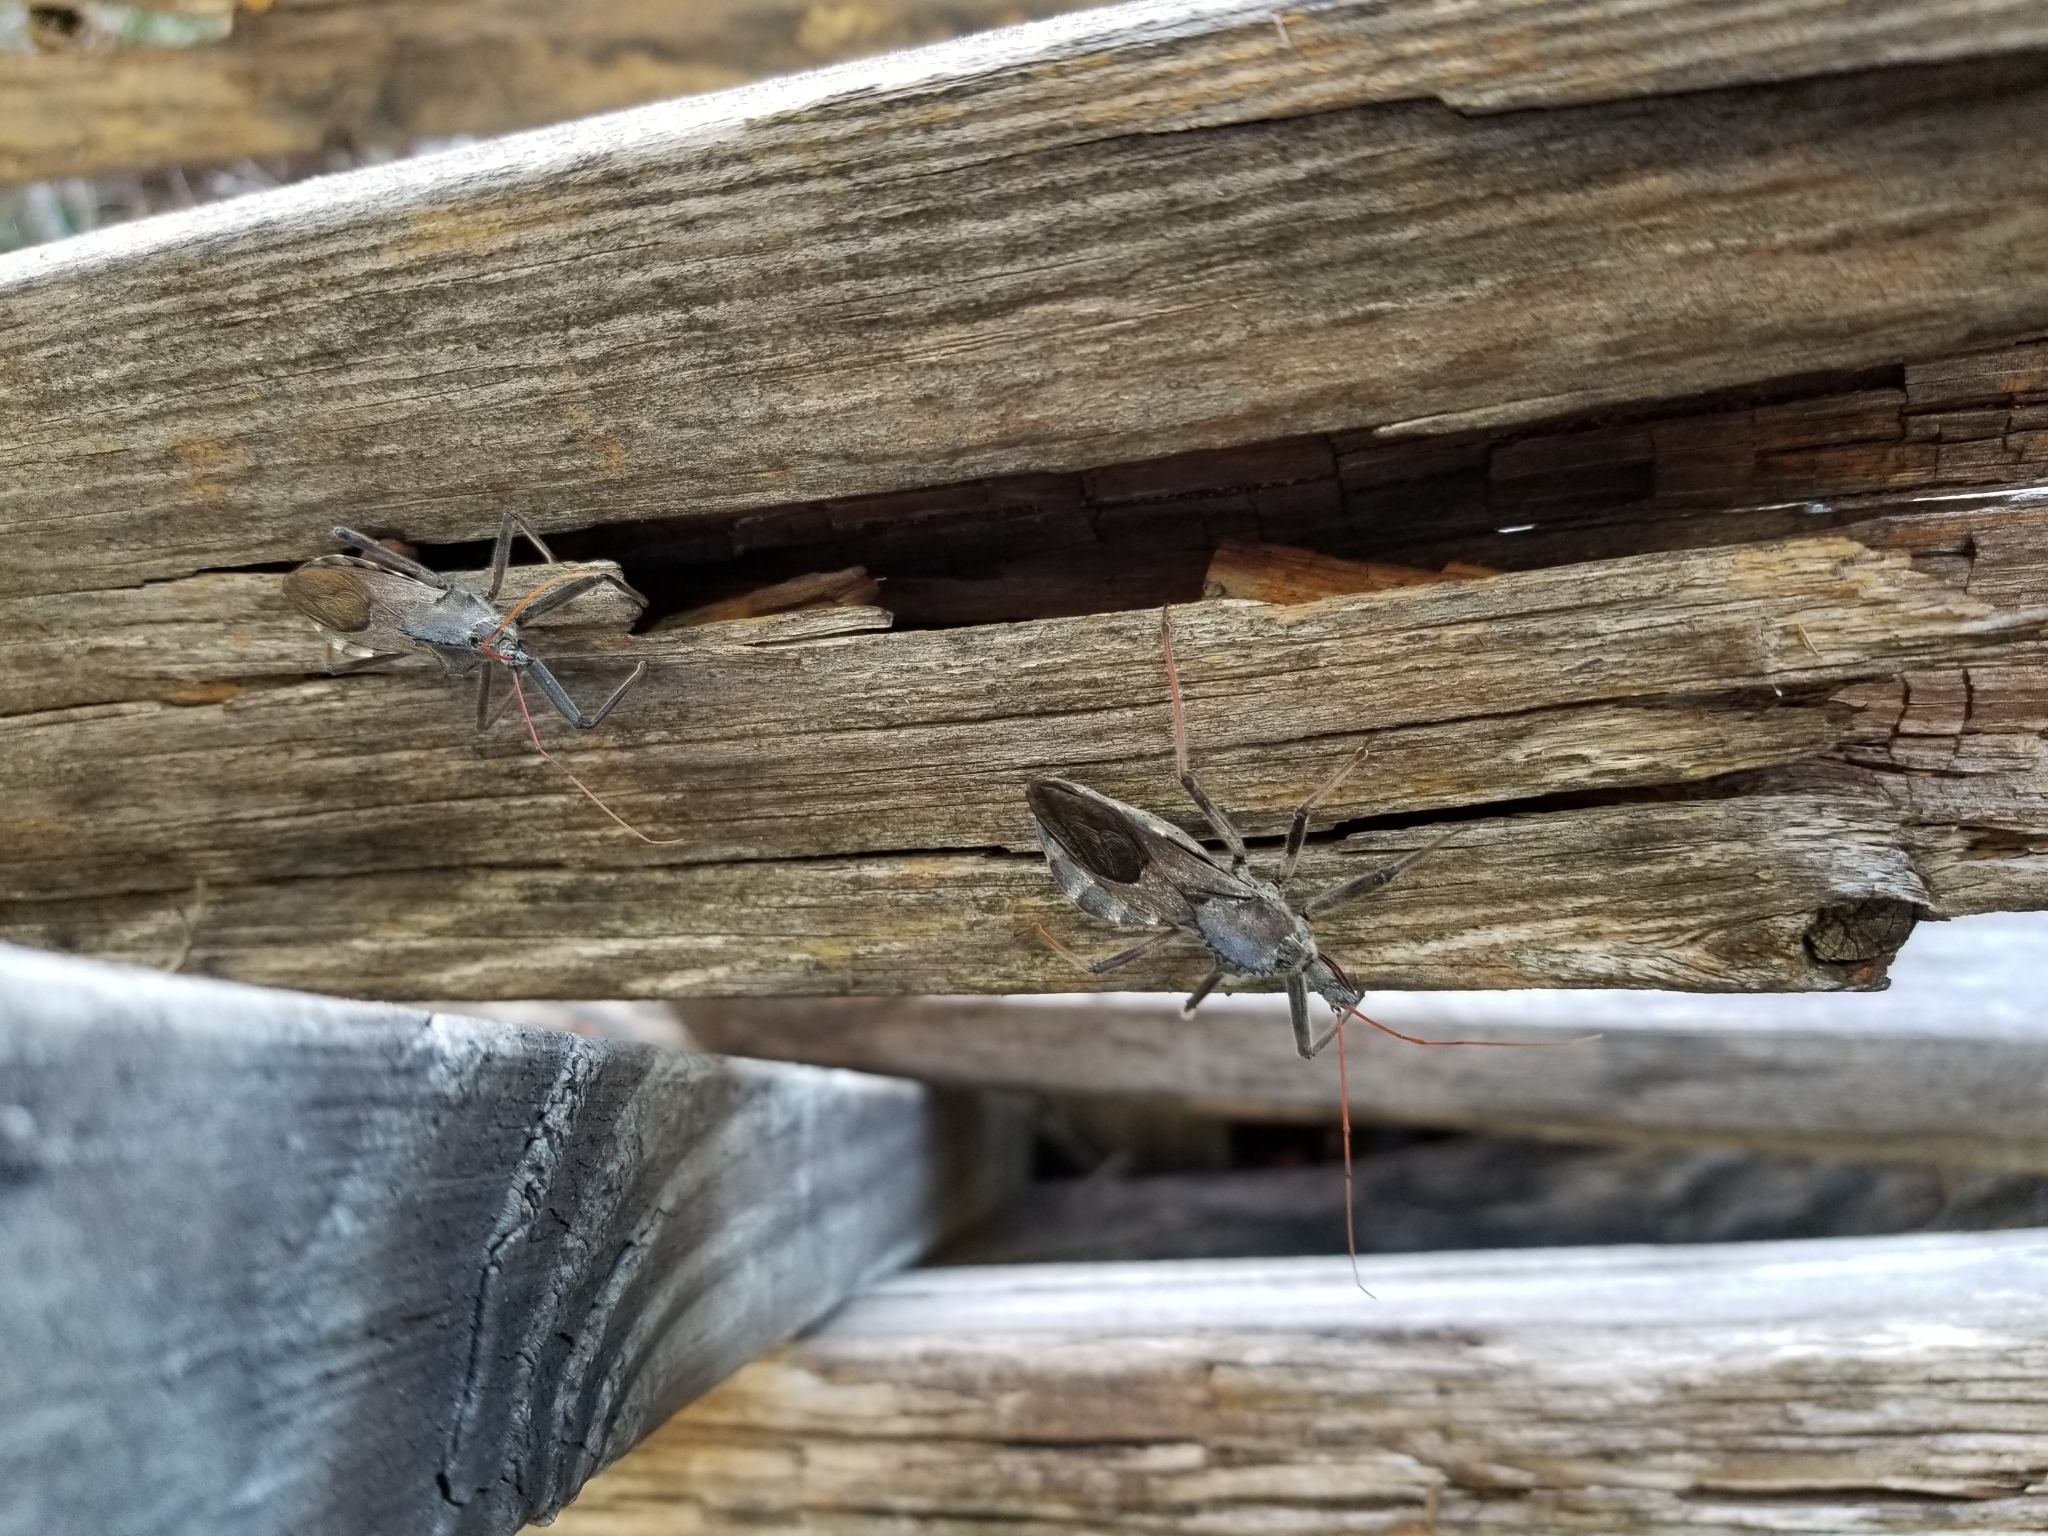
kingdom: Animalia
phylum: Arthropoda
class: Insecta
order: Hemiptera
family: Reduviidae
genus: Arilus
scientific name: Arilus cristatus
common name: North american wheel bug
